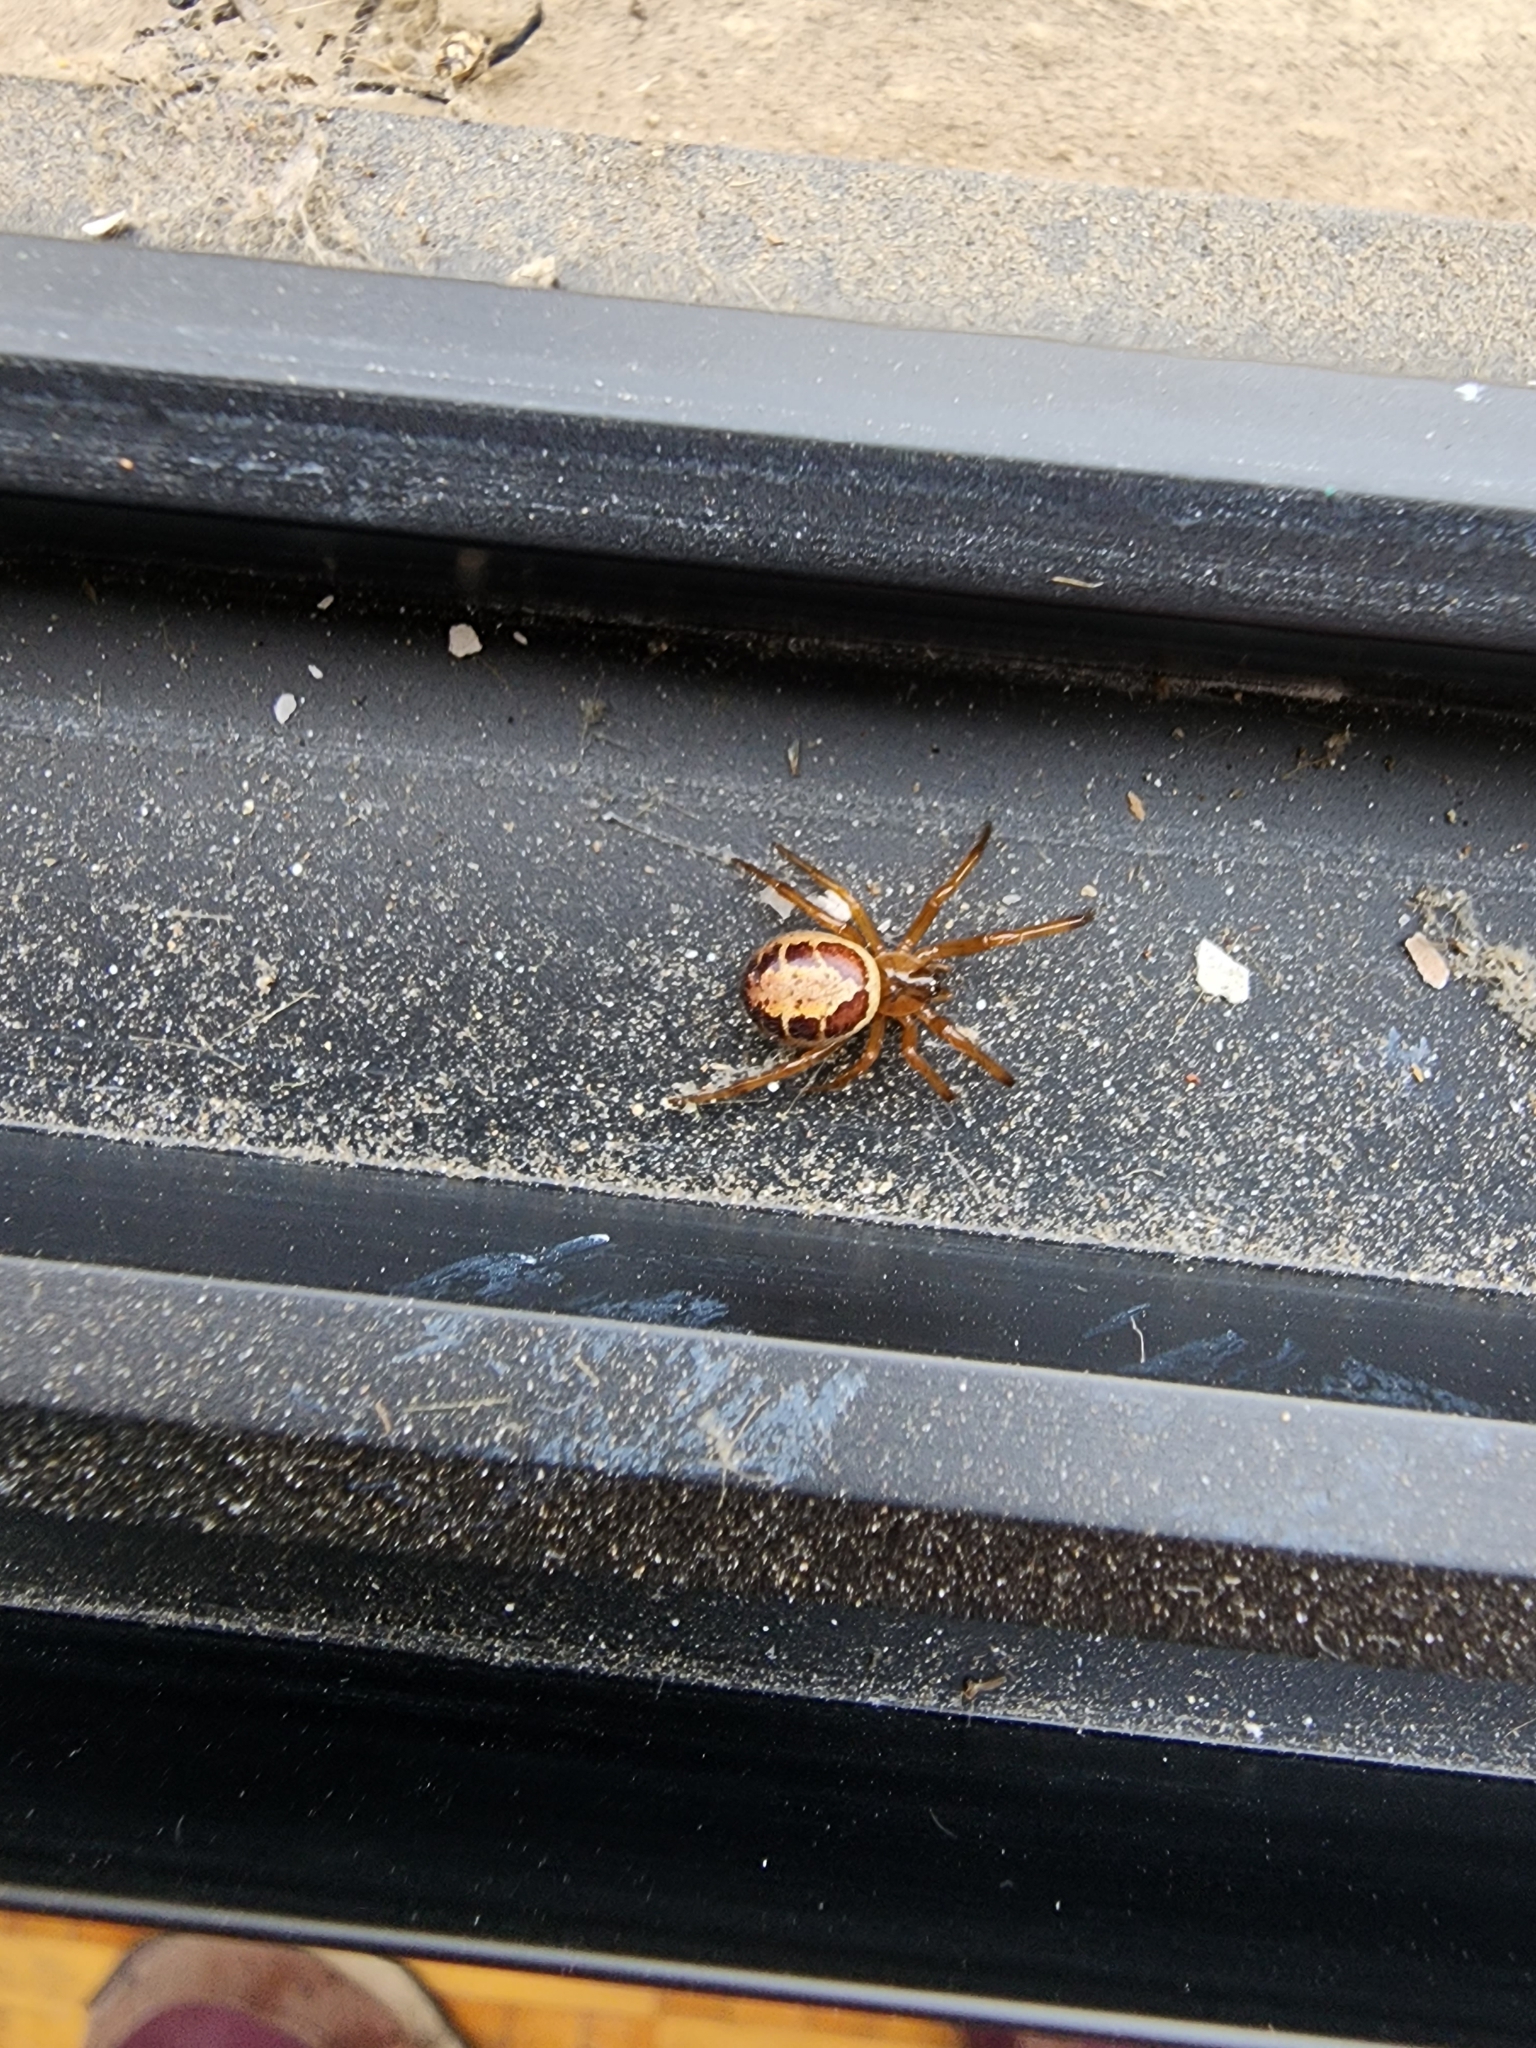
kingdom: Animalia
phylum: Arthropoda
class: Arachnida
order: Araneae
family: Theridiidae
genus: Steatoda
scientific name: Steatoda nobilis
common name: Cobweb weaver
